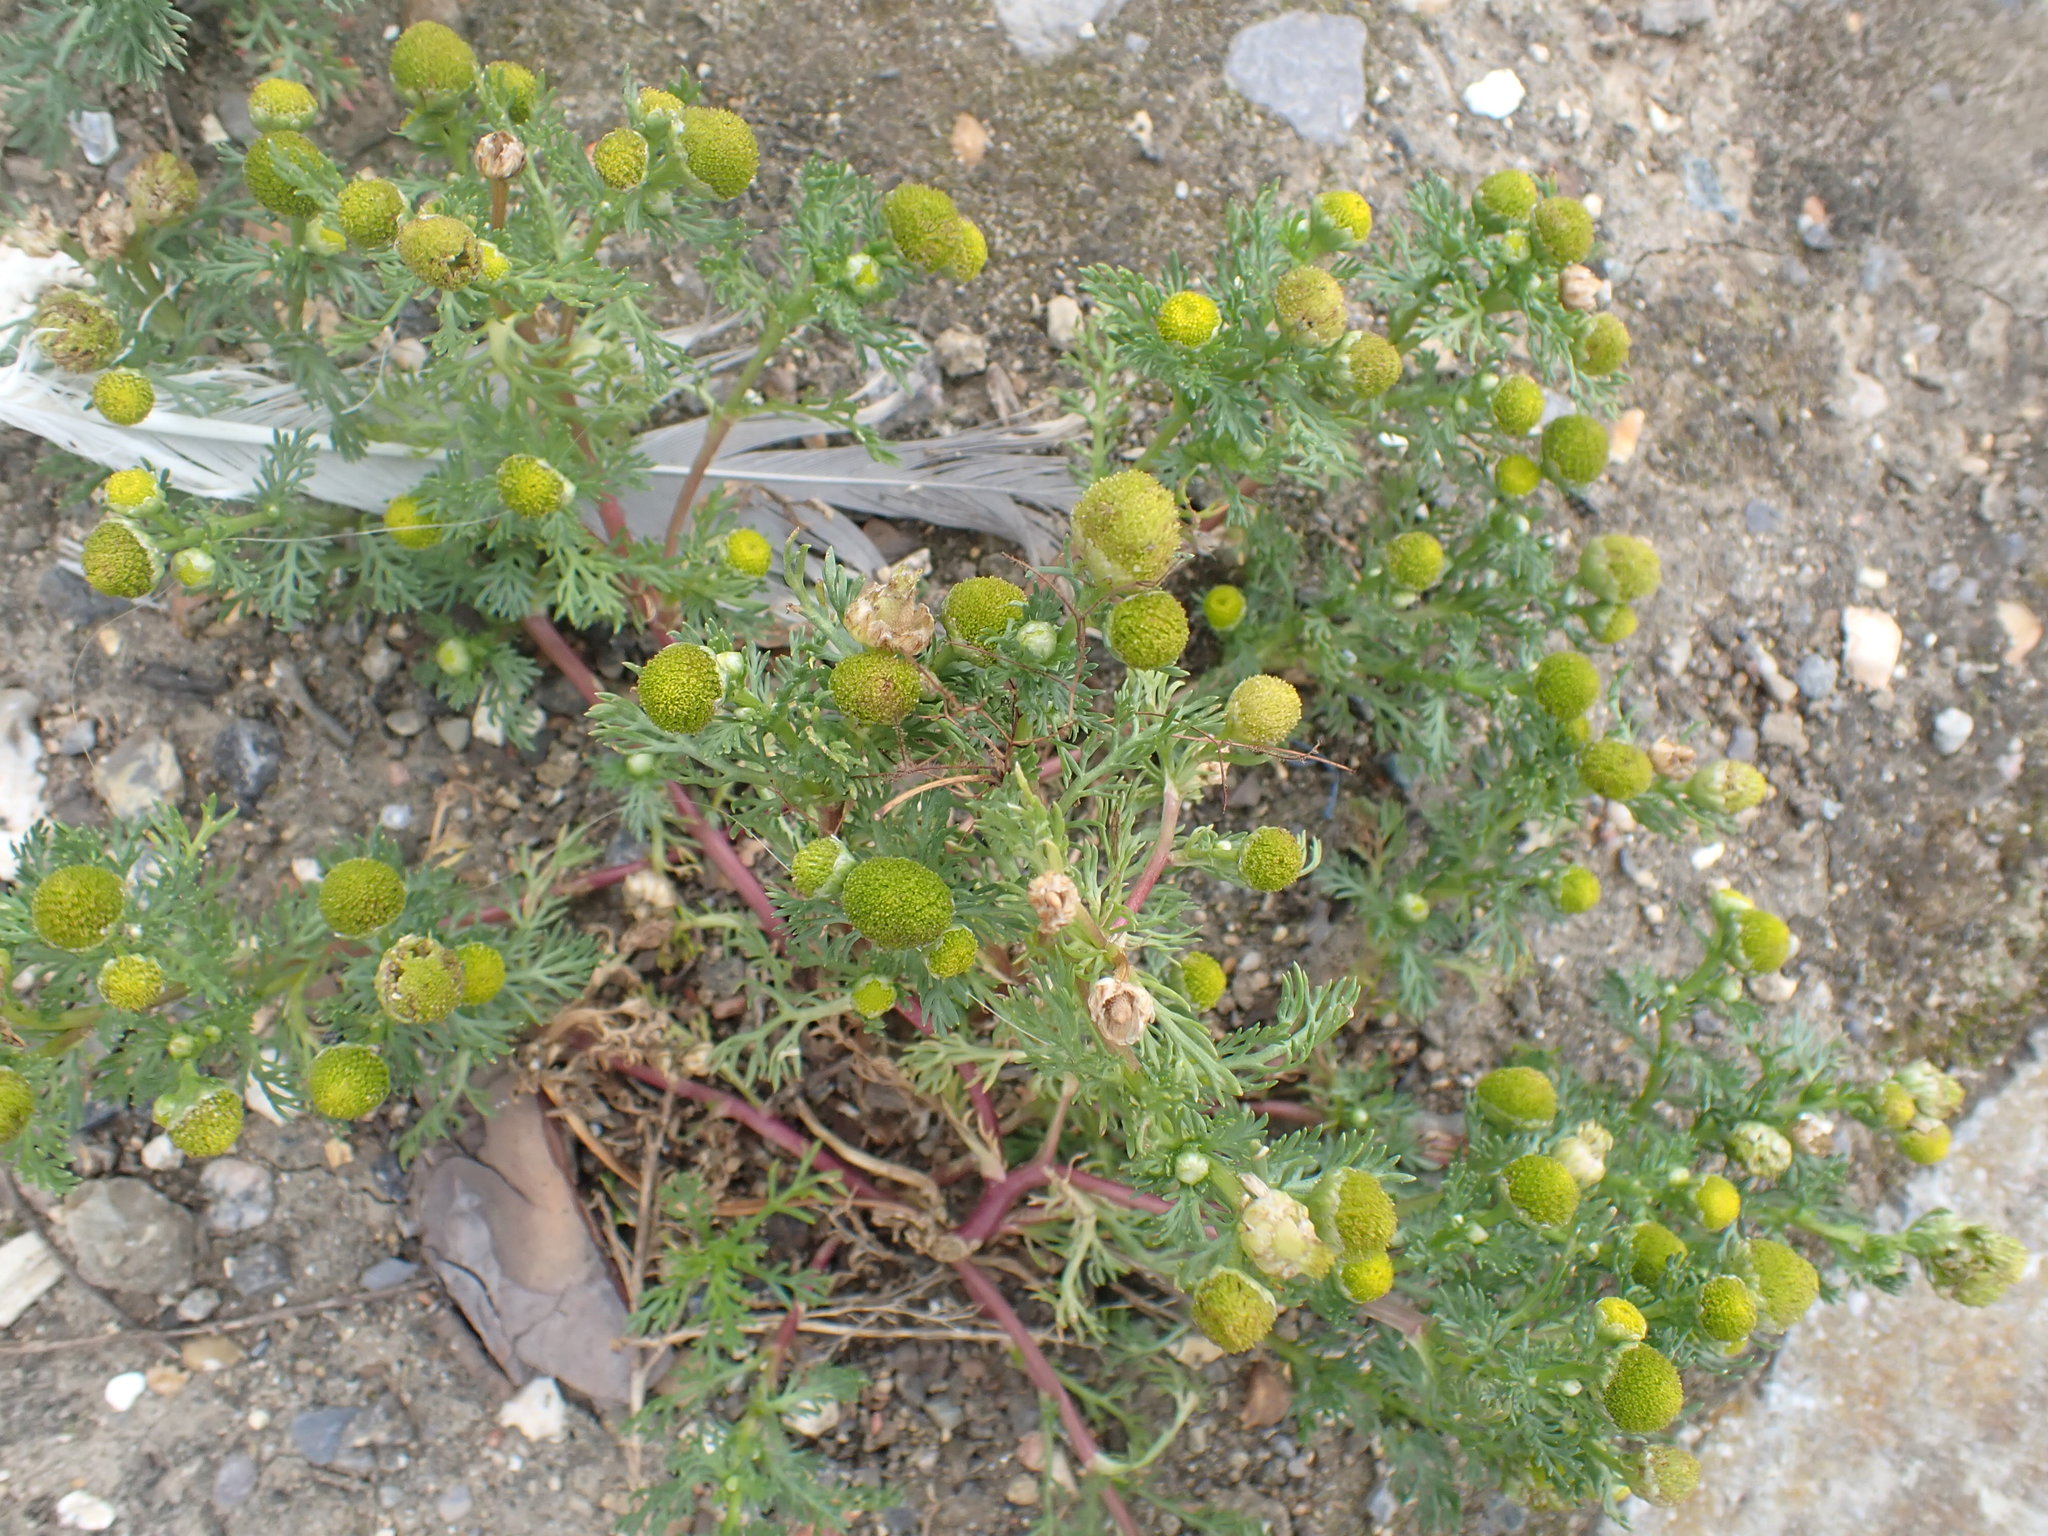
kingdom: Plantae
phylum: Tracheophyta
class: Magnoliopsida
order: Asterales
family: Asteraceae
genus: Matricaria
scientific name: Matricaria discoidea
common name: Disc mayweed
